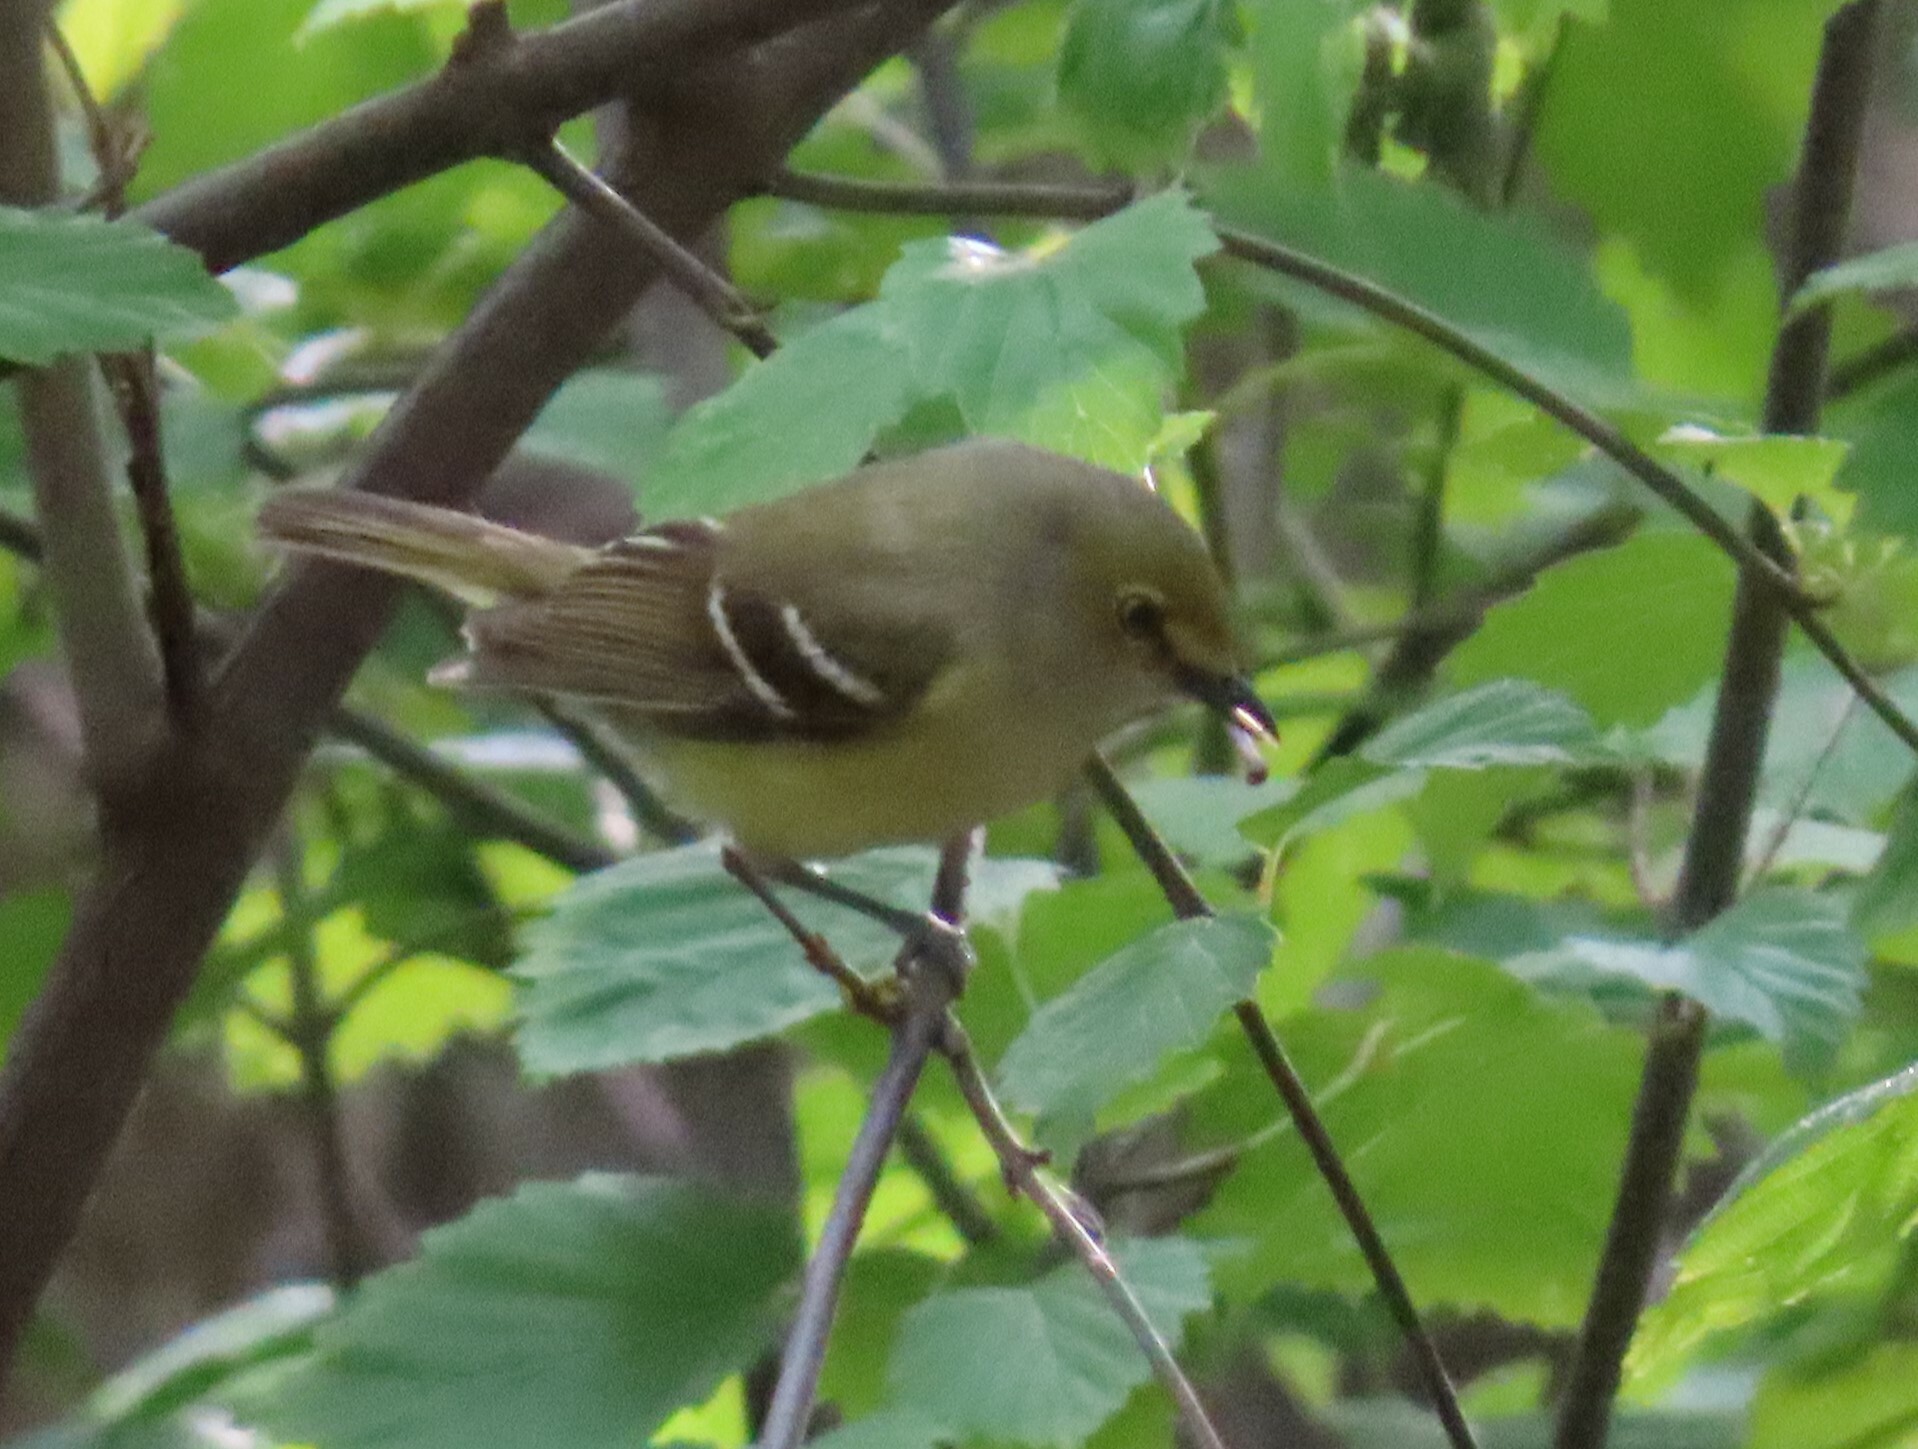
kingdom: Animalia
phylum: Chordata
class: Aves
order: Passeriformes
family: Vireonidae
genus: Vireo
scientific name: Vireo griseus
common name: White-eyed vireo
